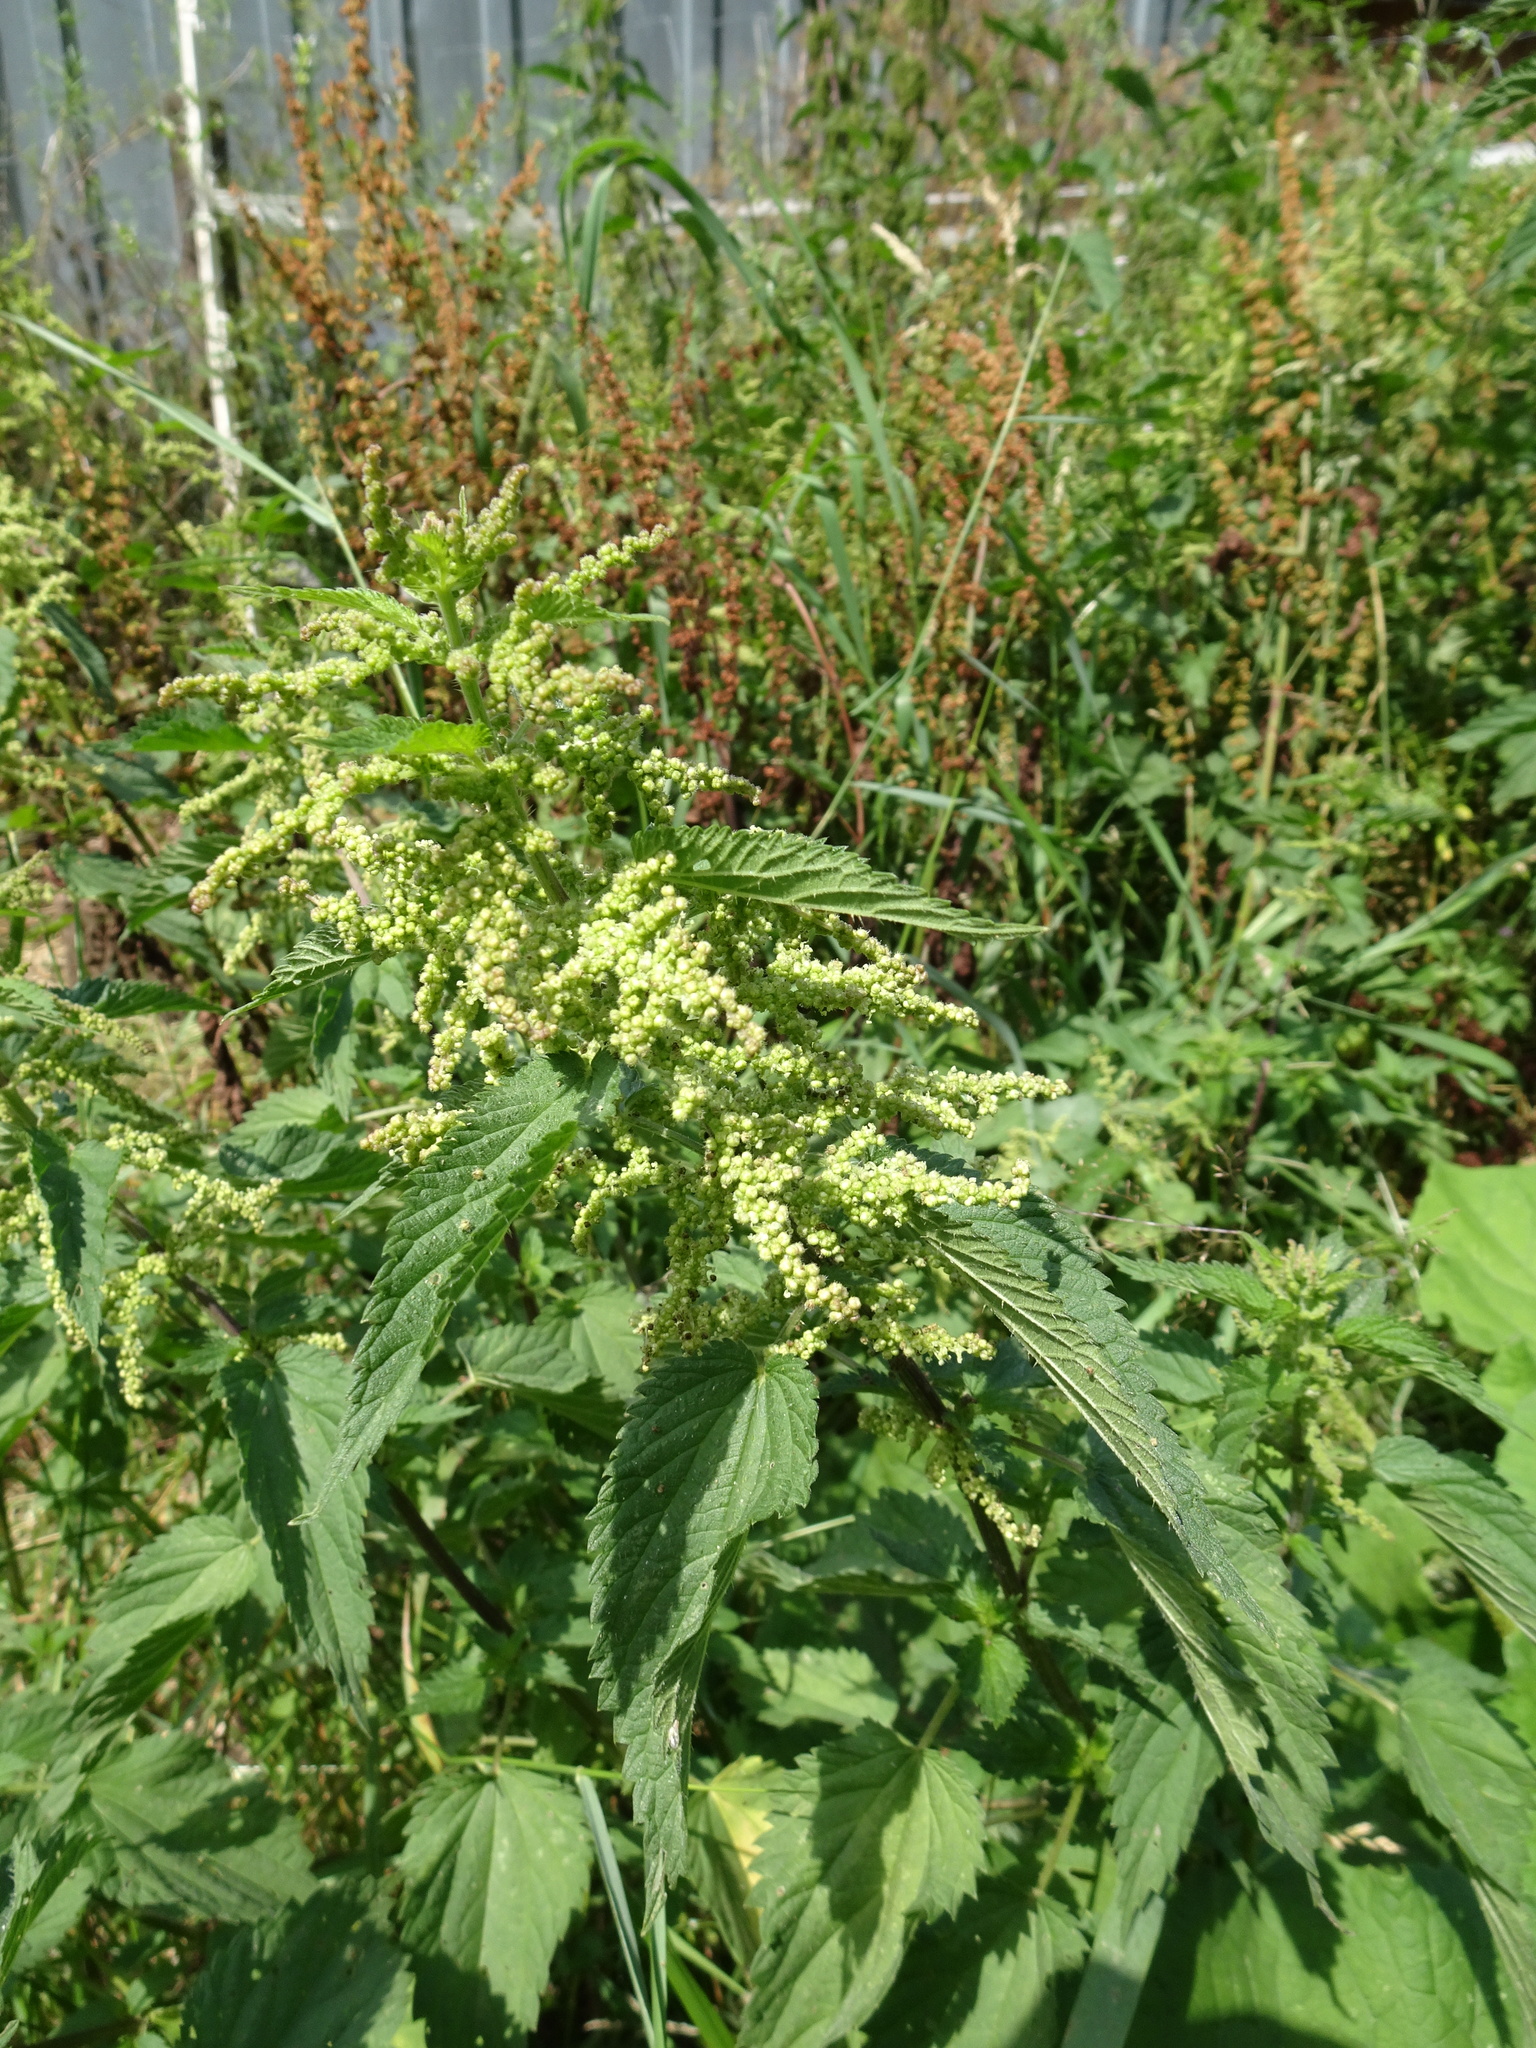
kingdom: Plantae
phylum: Tracheophyta
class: Magnoliopsida
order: Rosales
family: Urticaceae
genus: Urtica
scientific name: Urtica dioica
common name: Common nettle
